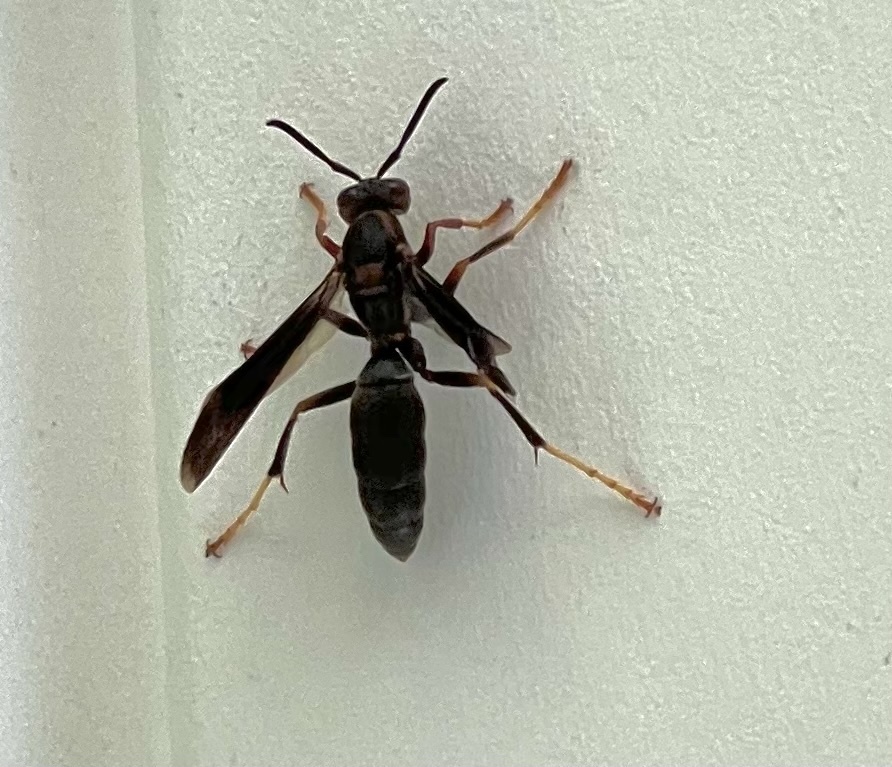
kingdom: Animalia
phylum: Arthropoda
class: Insecta
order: Hymenoptera
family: Eumenidae
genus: Polistes
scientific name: Polistes metricus
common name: Metric paper wasp
